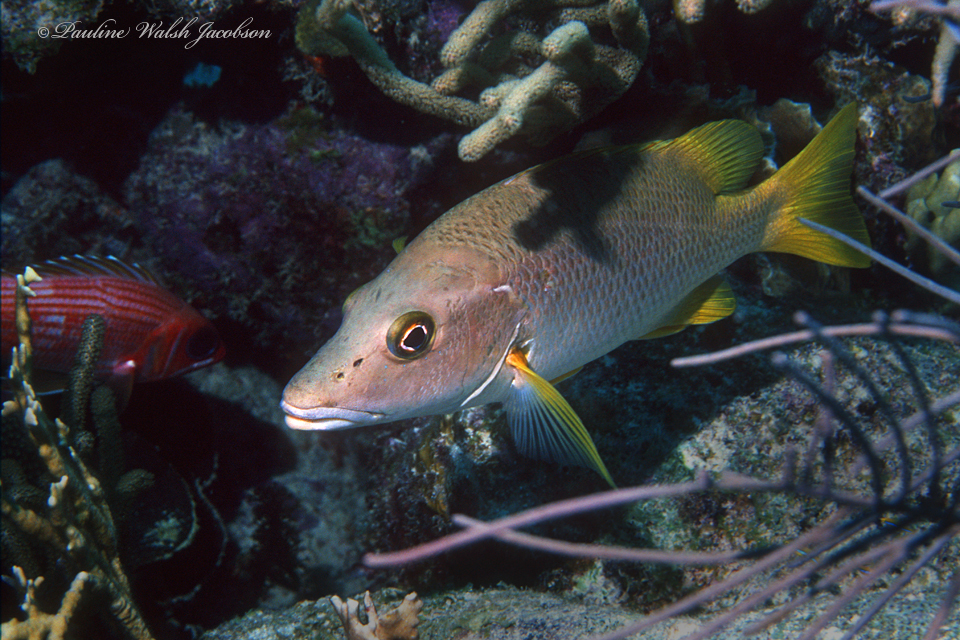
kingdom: Animalia
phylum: Chordata
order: Perciformes
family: Lutjanidae
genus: Lutjanus
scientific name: Lutjanus apodus
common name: Schoolmaster
